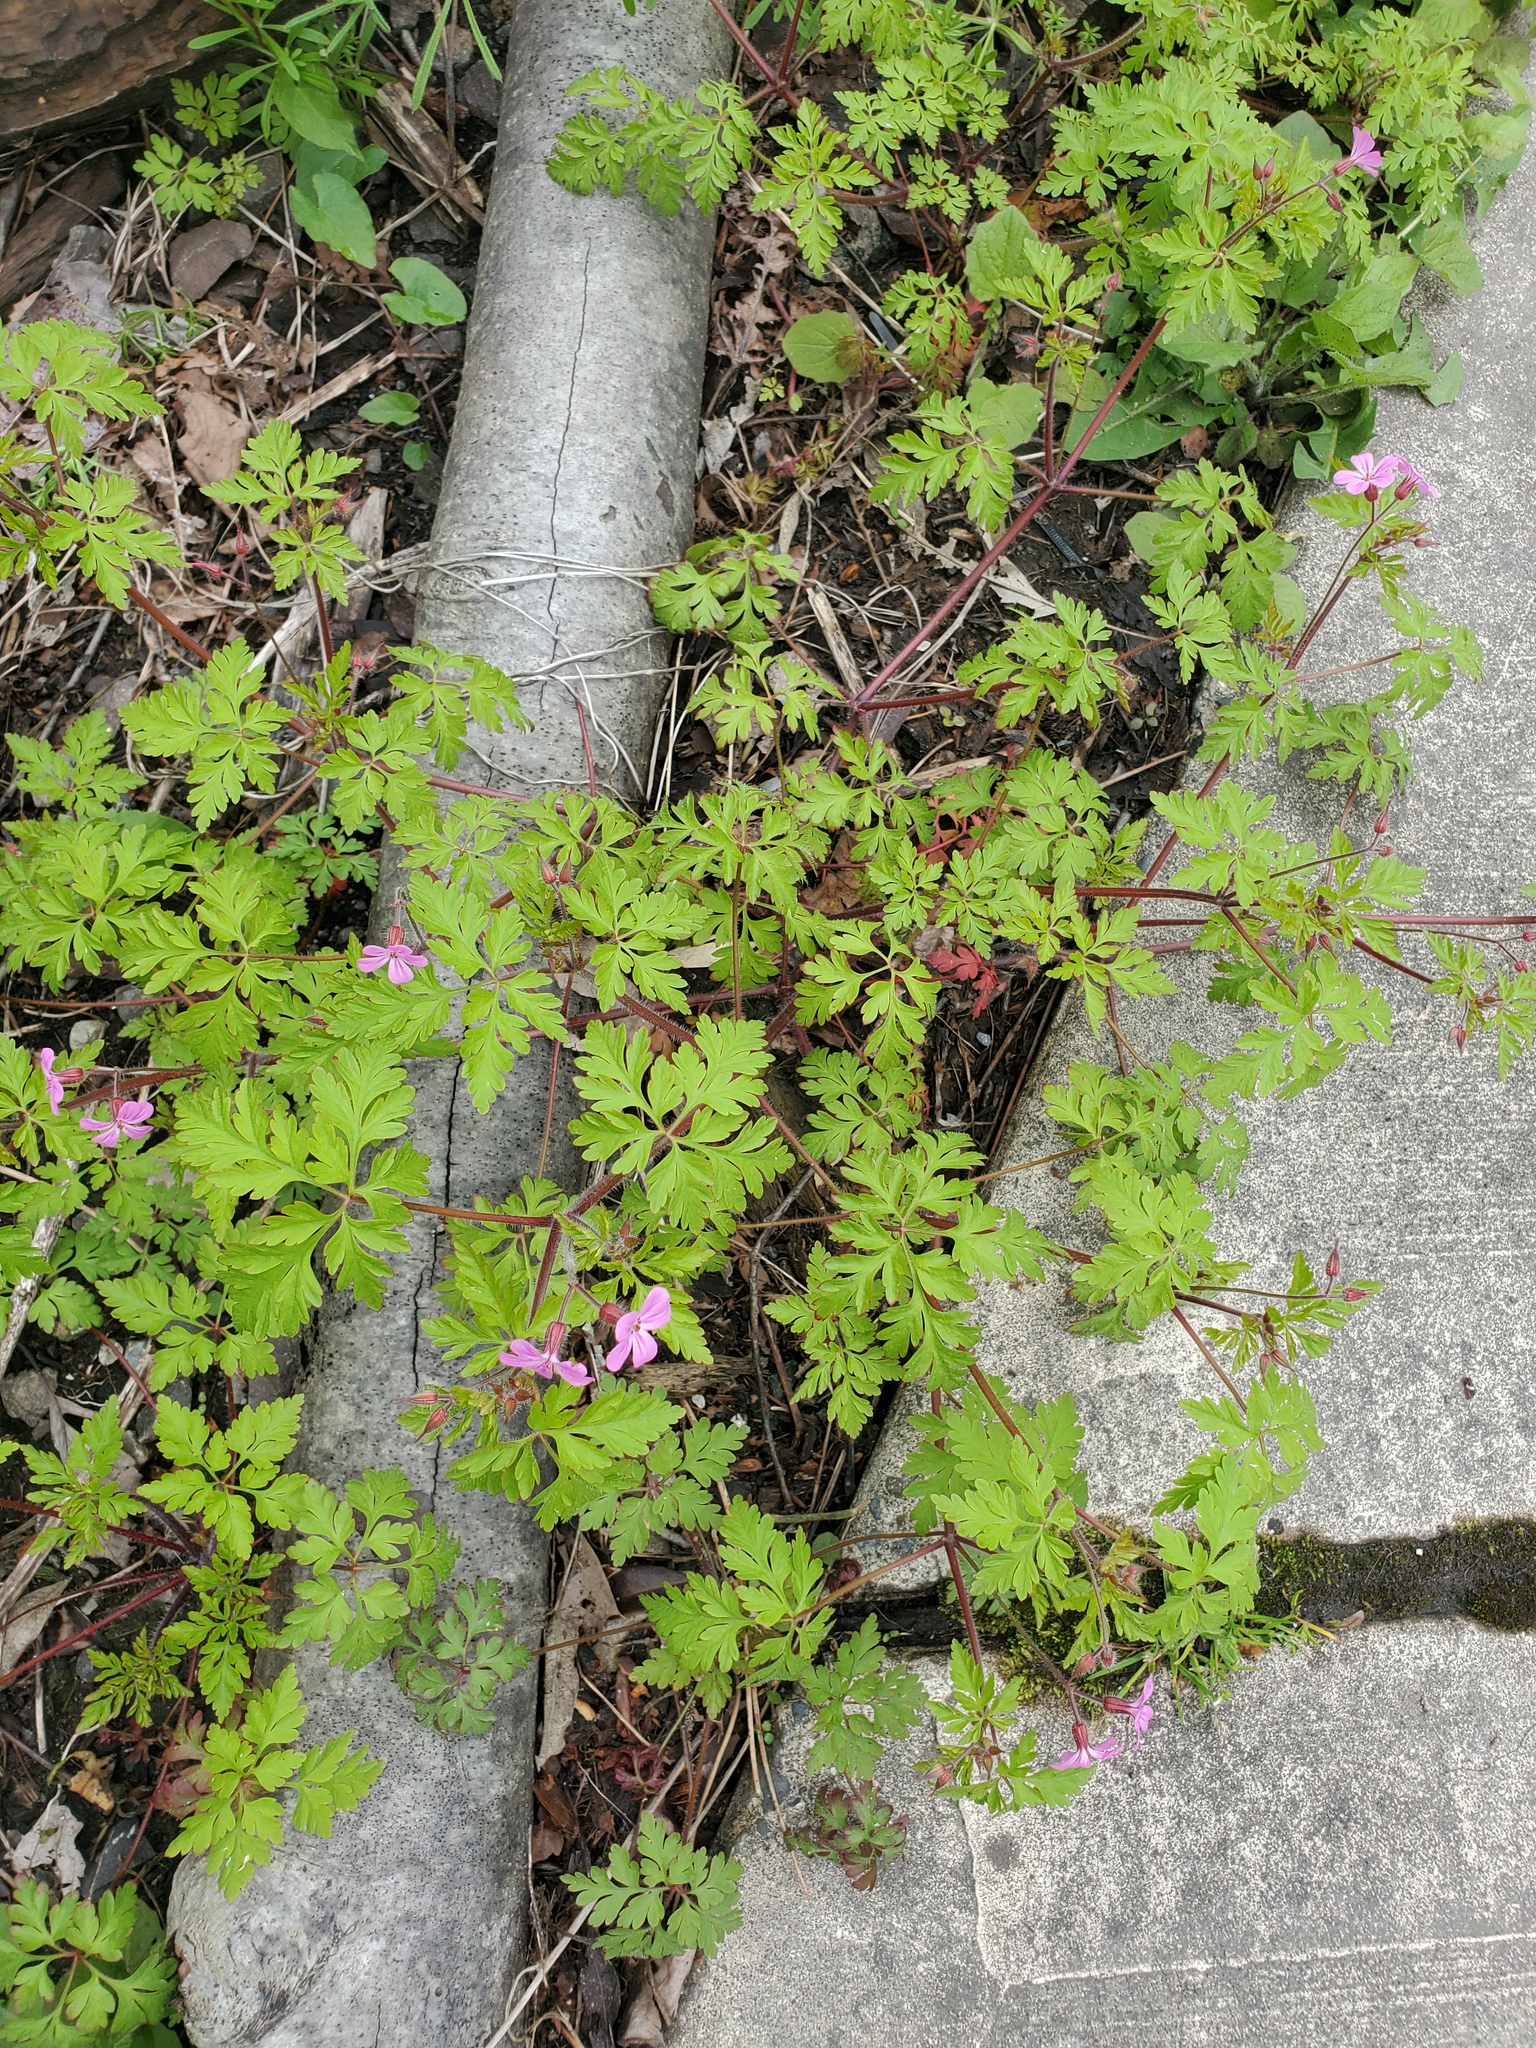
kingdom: Plantae
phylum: Tracheophyta
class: Magnoliopsida
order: Geraniales
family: Geraniaceae
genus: Geranium
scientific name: Geranium robertianum
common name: Herb-robert
